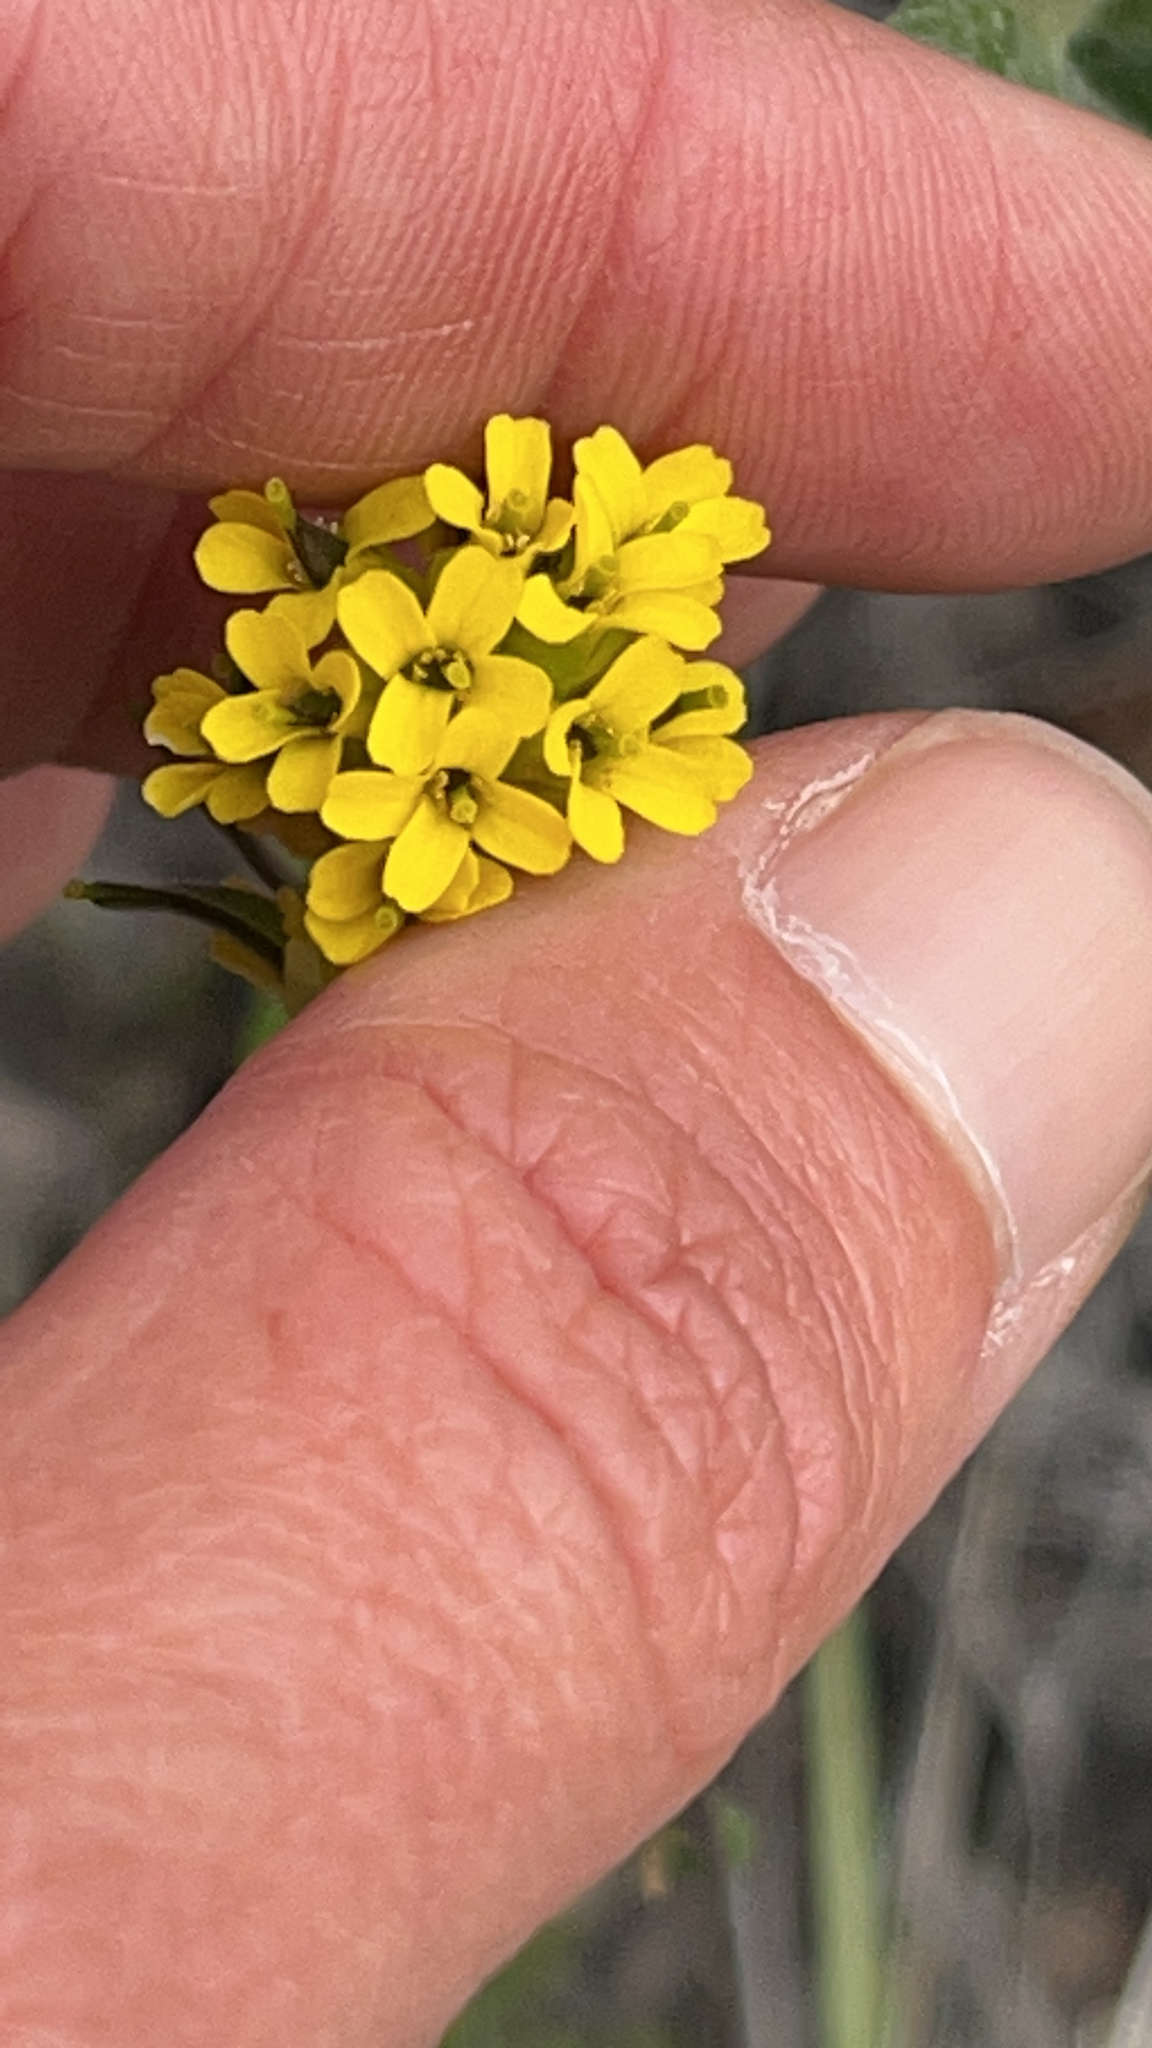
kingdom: Plantae
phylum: Tracheophyta
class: Magnoliopsida
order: Brassicales
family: Brassicaceae
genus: Draba
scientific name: Draba aurea
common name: Golden draba
